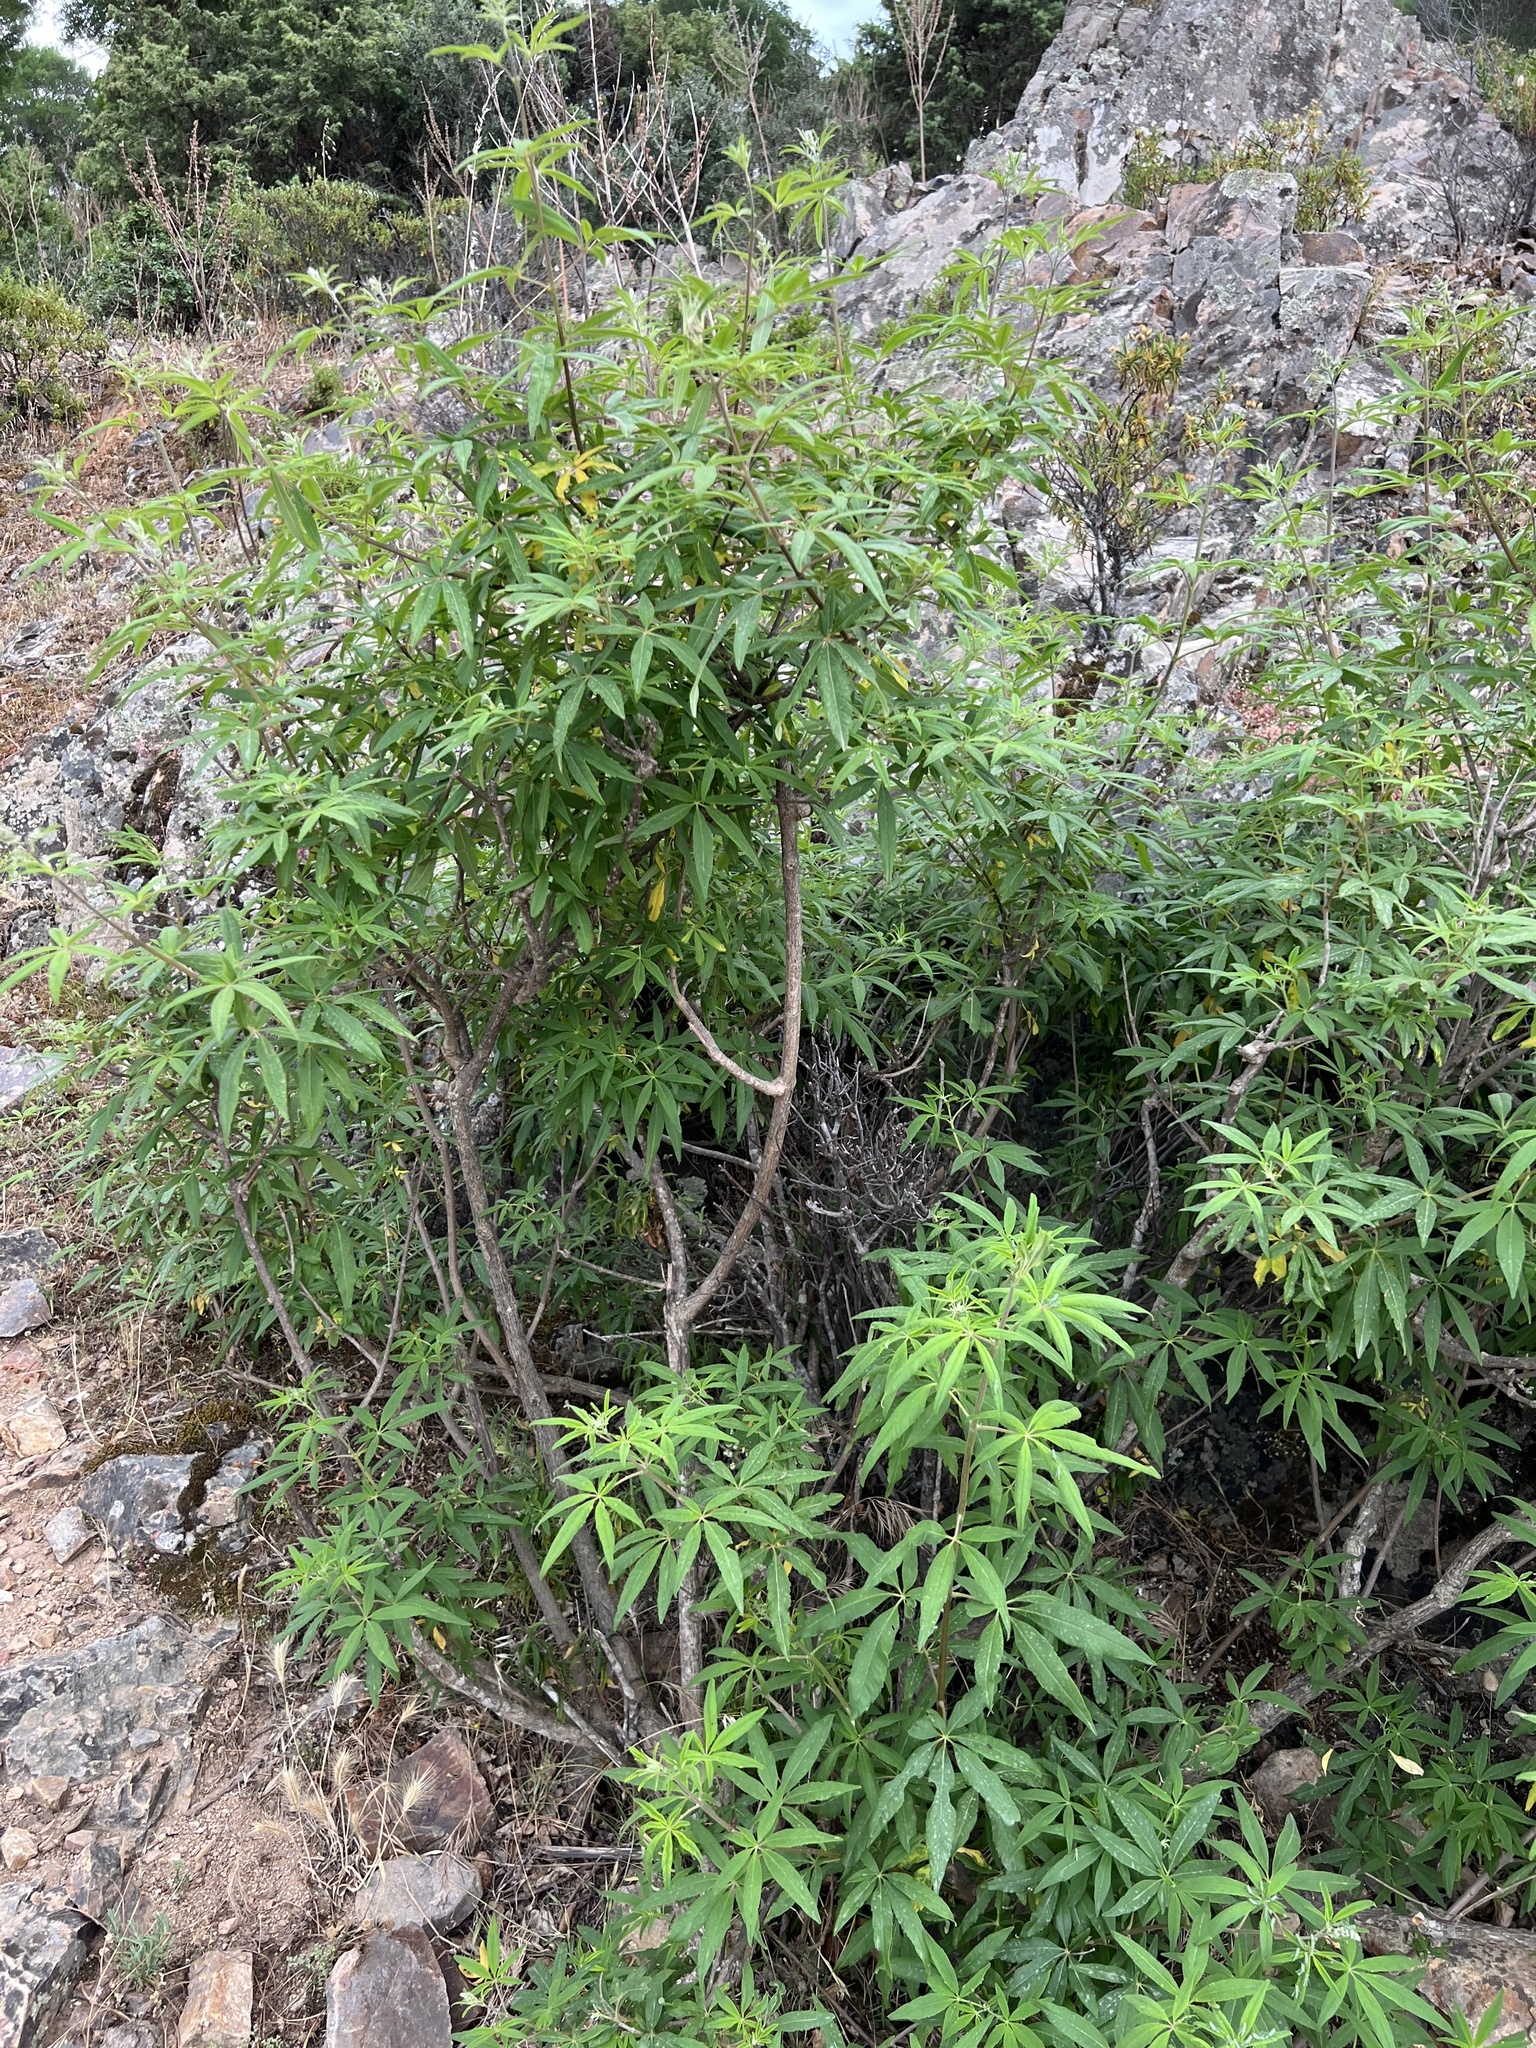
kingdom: Plantae
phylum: Tracheophyta
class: Magnoliopsida
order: Lamiales
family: Lamiaceae
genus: Vitex
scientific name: Vitex agnus-castus
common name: Chasteberry
